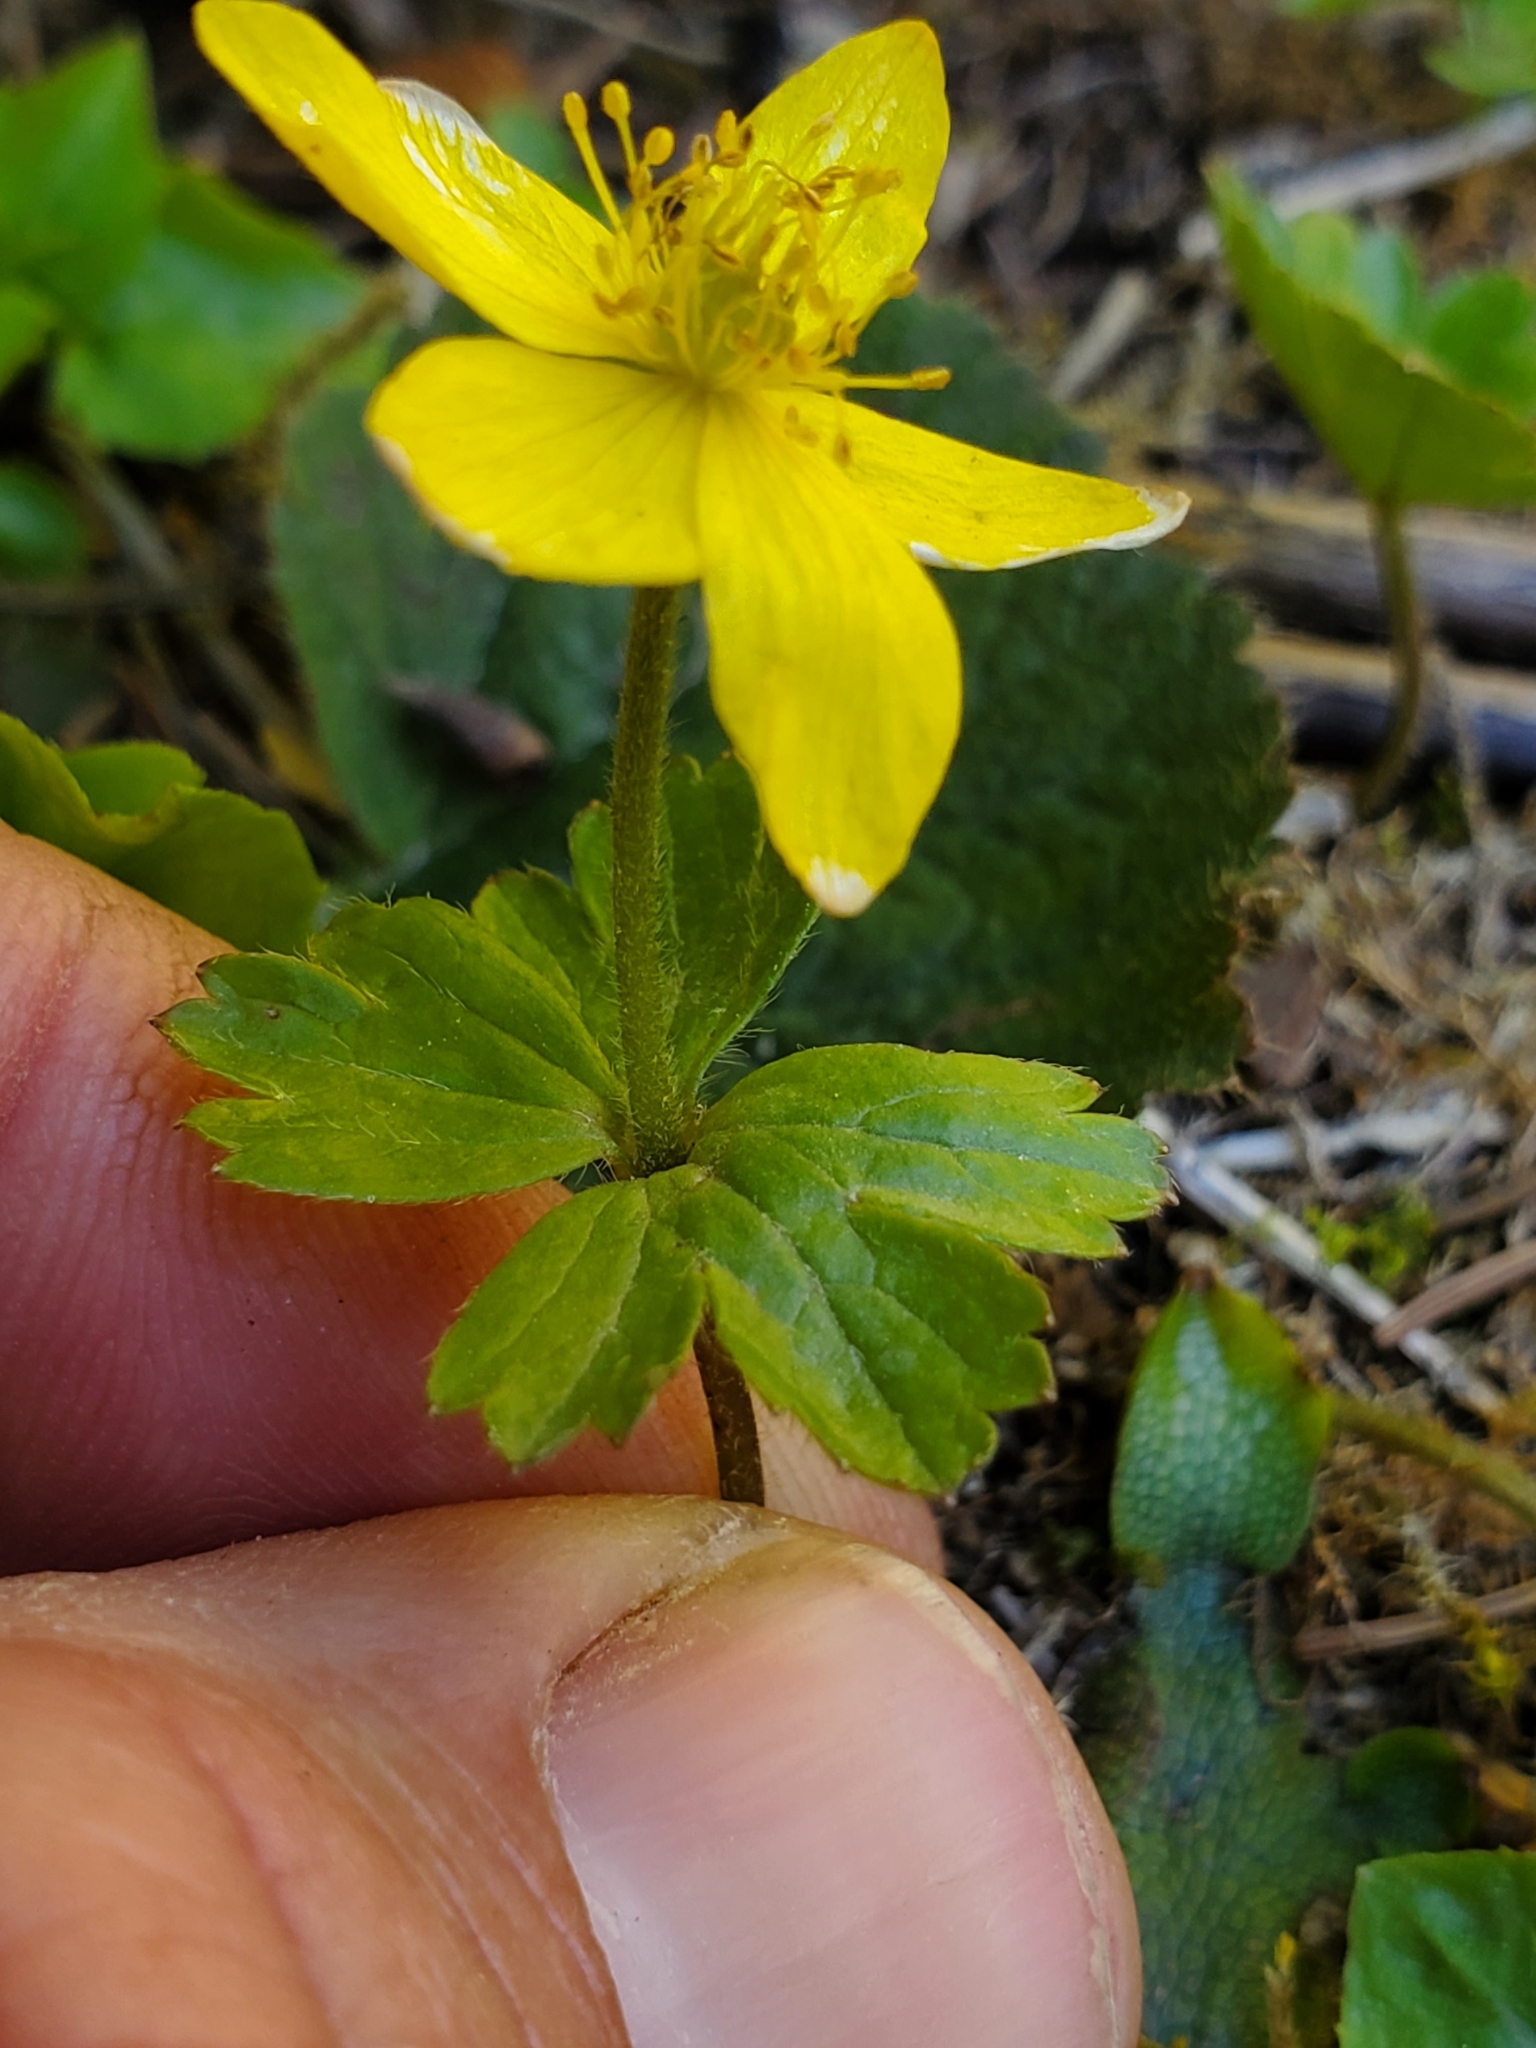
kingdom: Plantae
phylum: Tracheophyta
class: Magnoliopsida
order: Ranunculales
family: Ranunculaceae
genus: Anemonastrum
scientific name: Anemonastrum richardsonii
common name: Richardson's anemone
